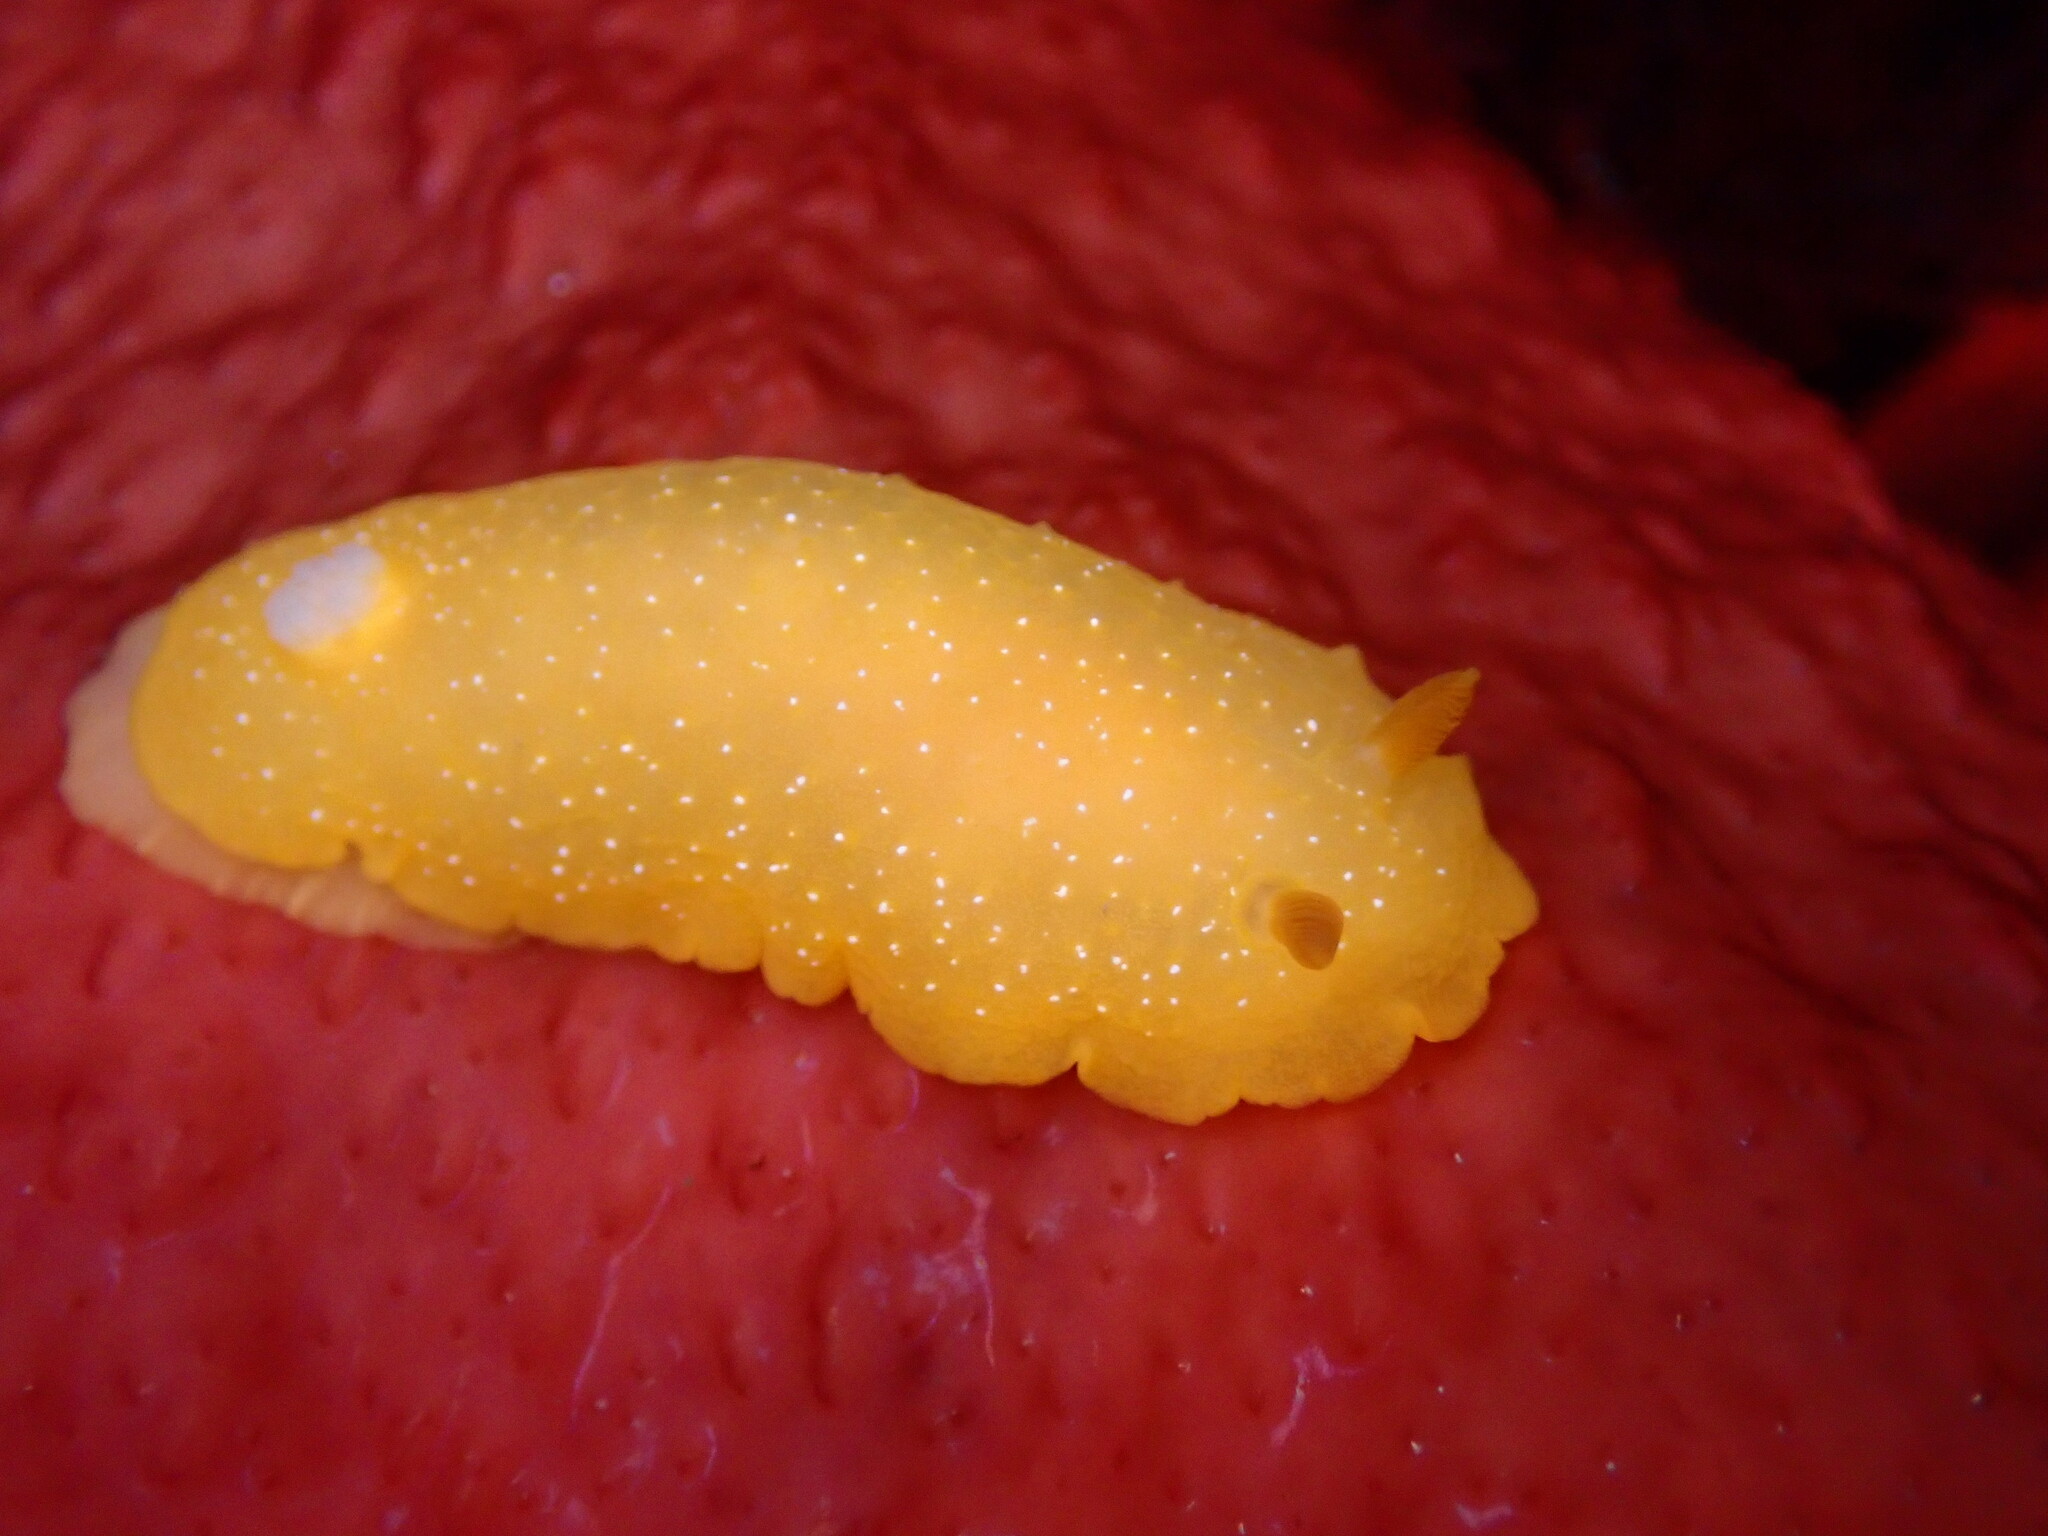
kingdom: Animalia
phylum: Mollusca
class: Gastropoda
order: Nudibranchia
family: Dendrodorididae
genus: Doriopsilla
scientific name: Doriopsilla fulva
